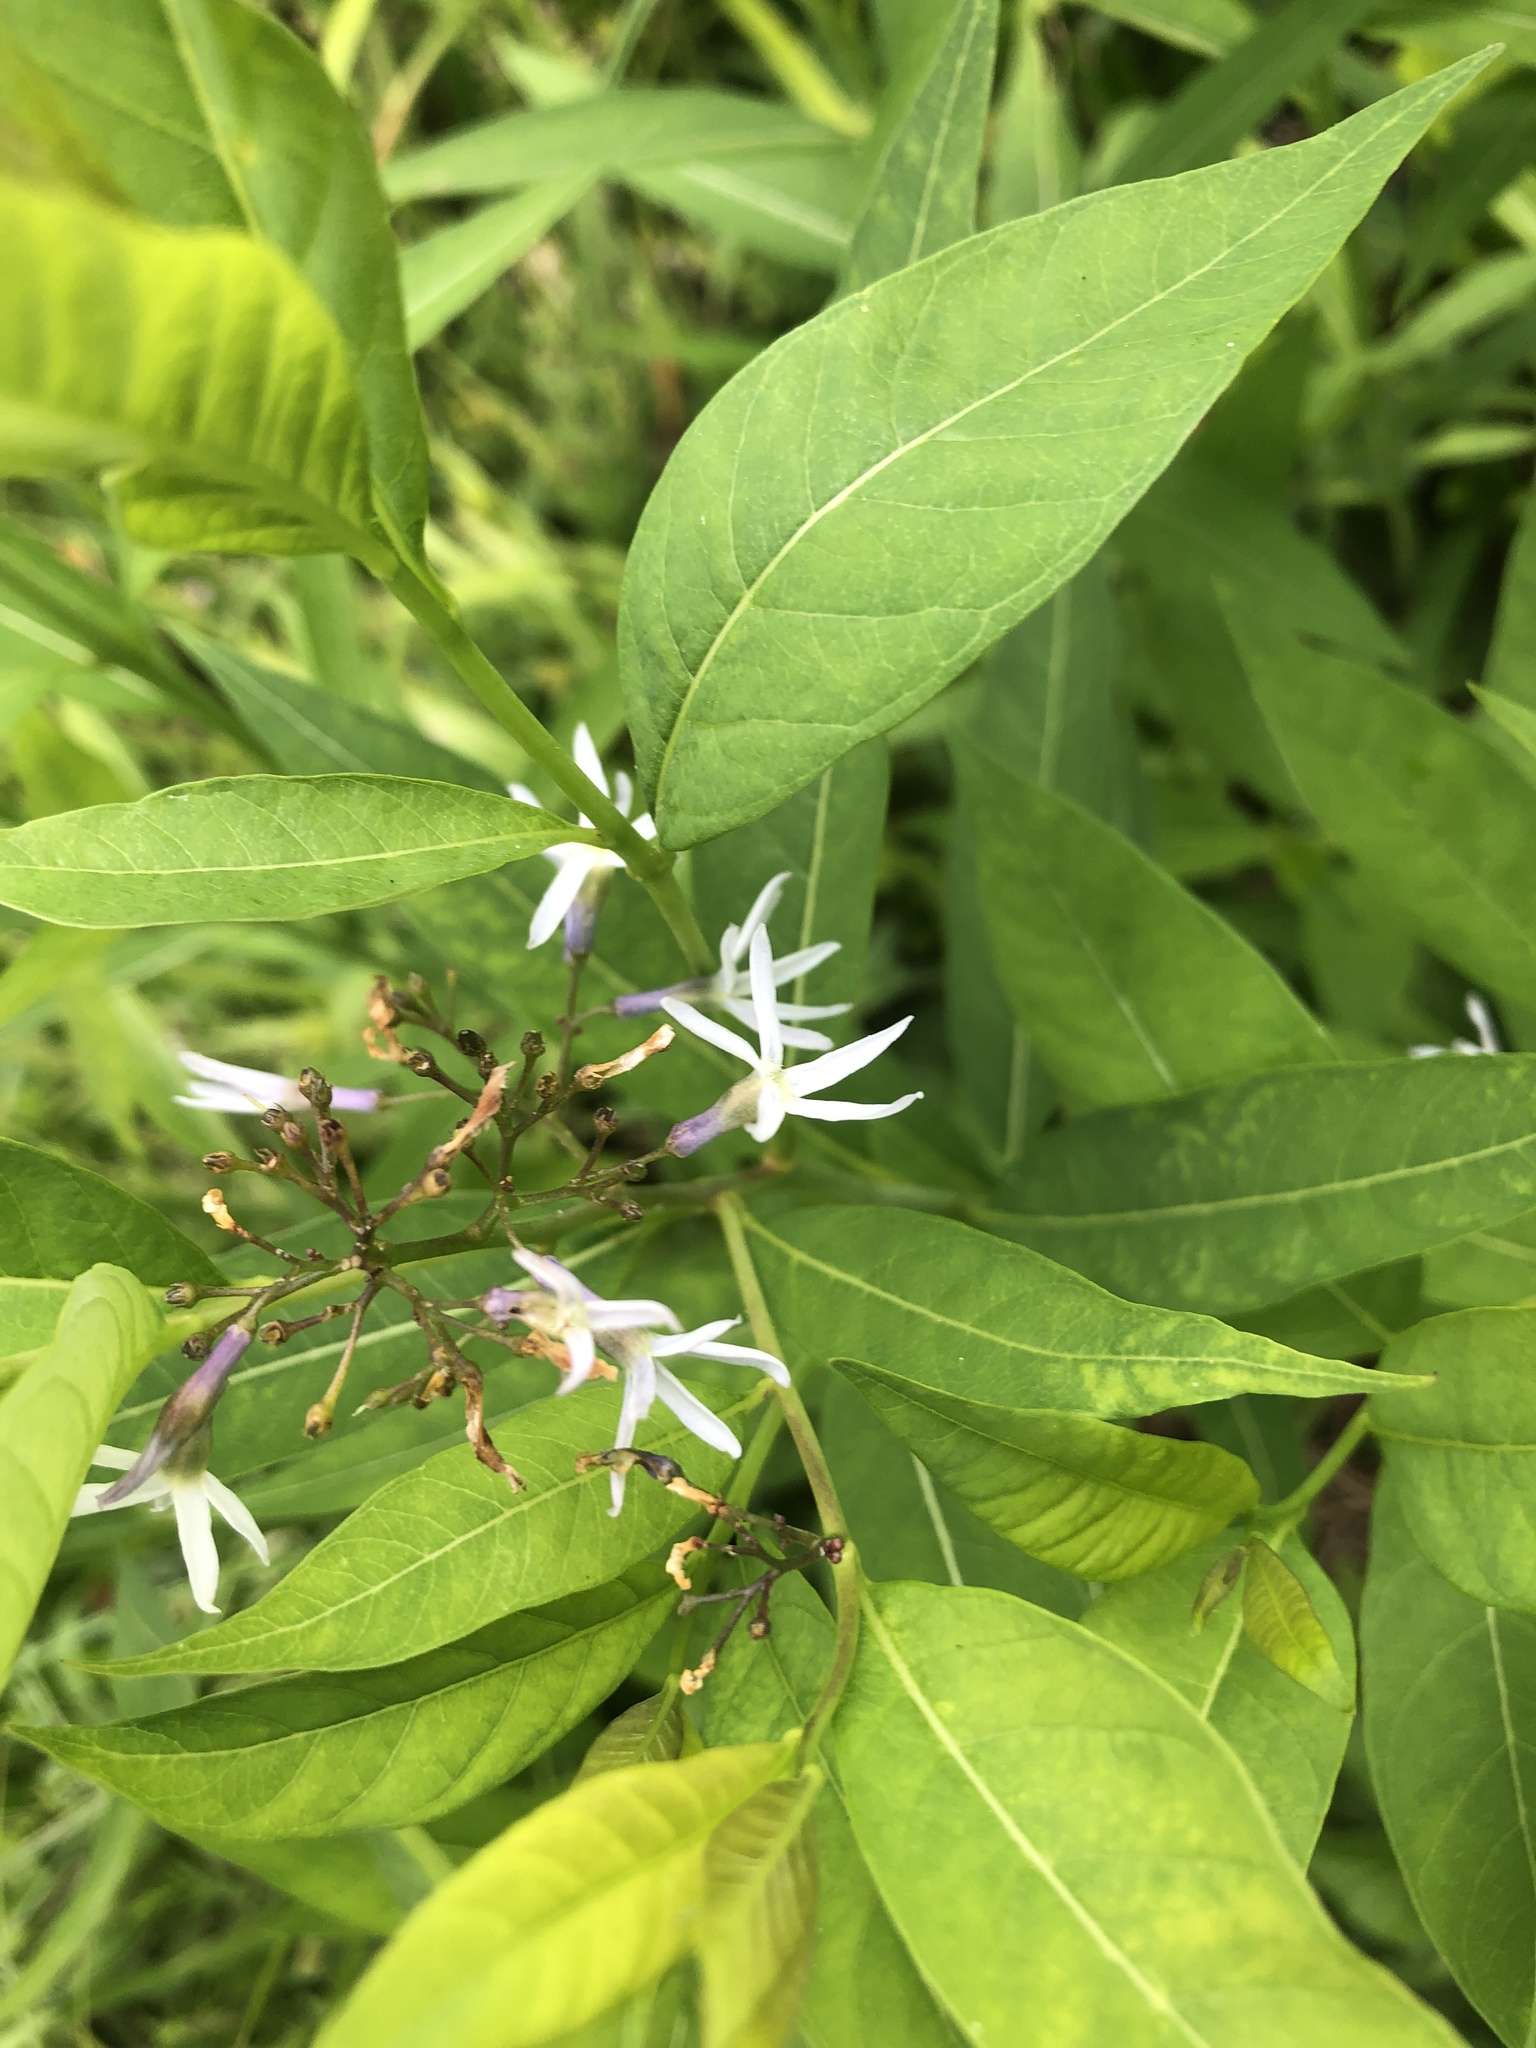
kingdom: Plantae
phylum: Tracheophyta
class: Magnoliopsida
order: Gentianales
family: Apocynaceae
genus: Amsonia
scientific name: Amsonia tabernaemontana
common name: Texas-star
